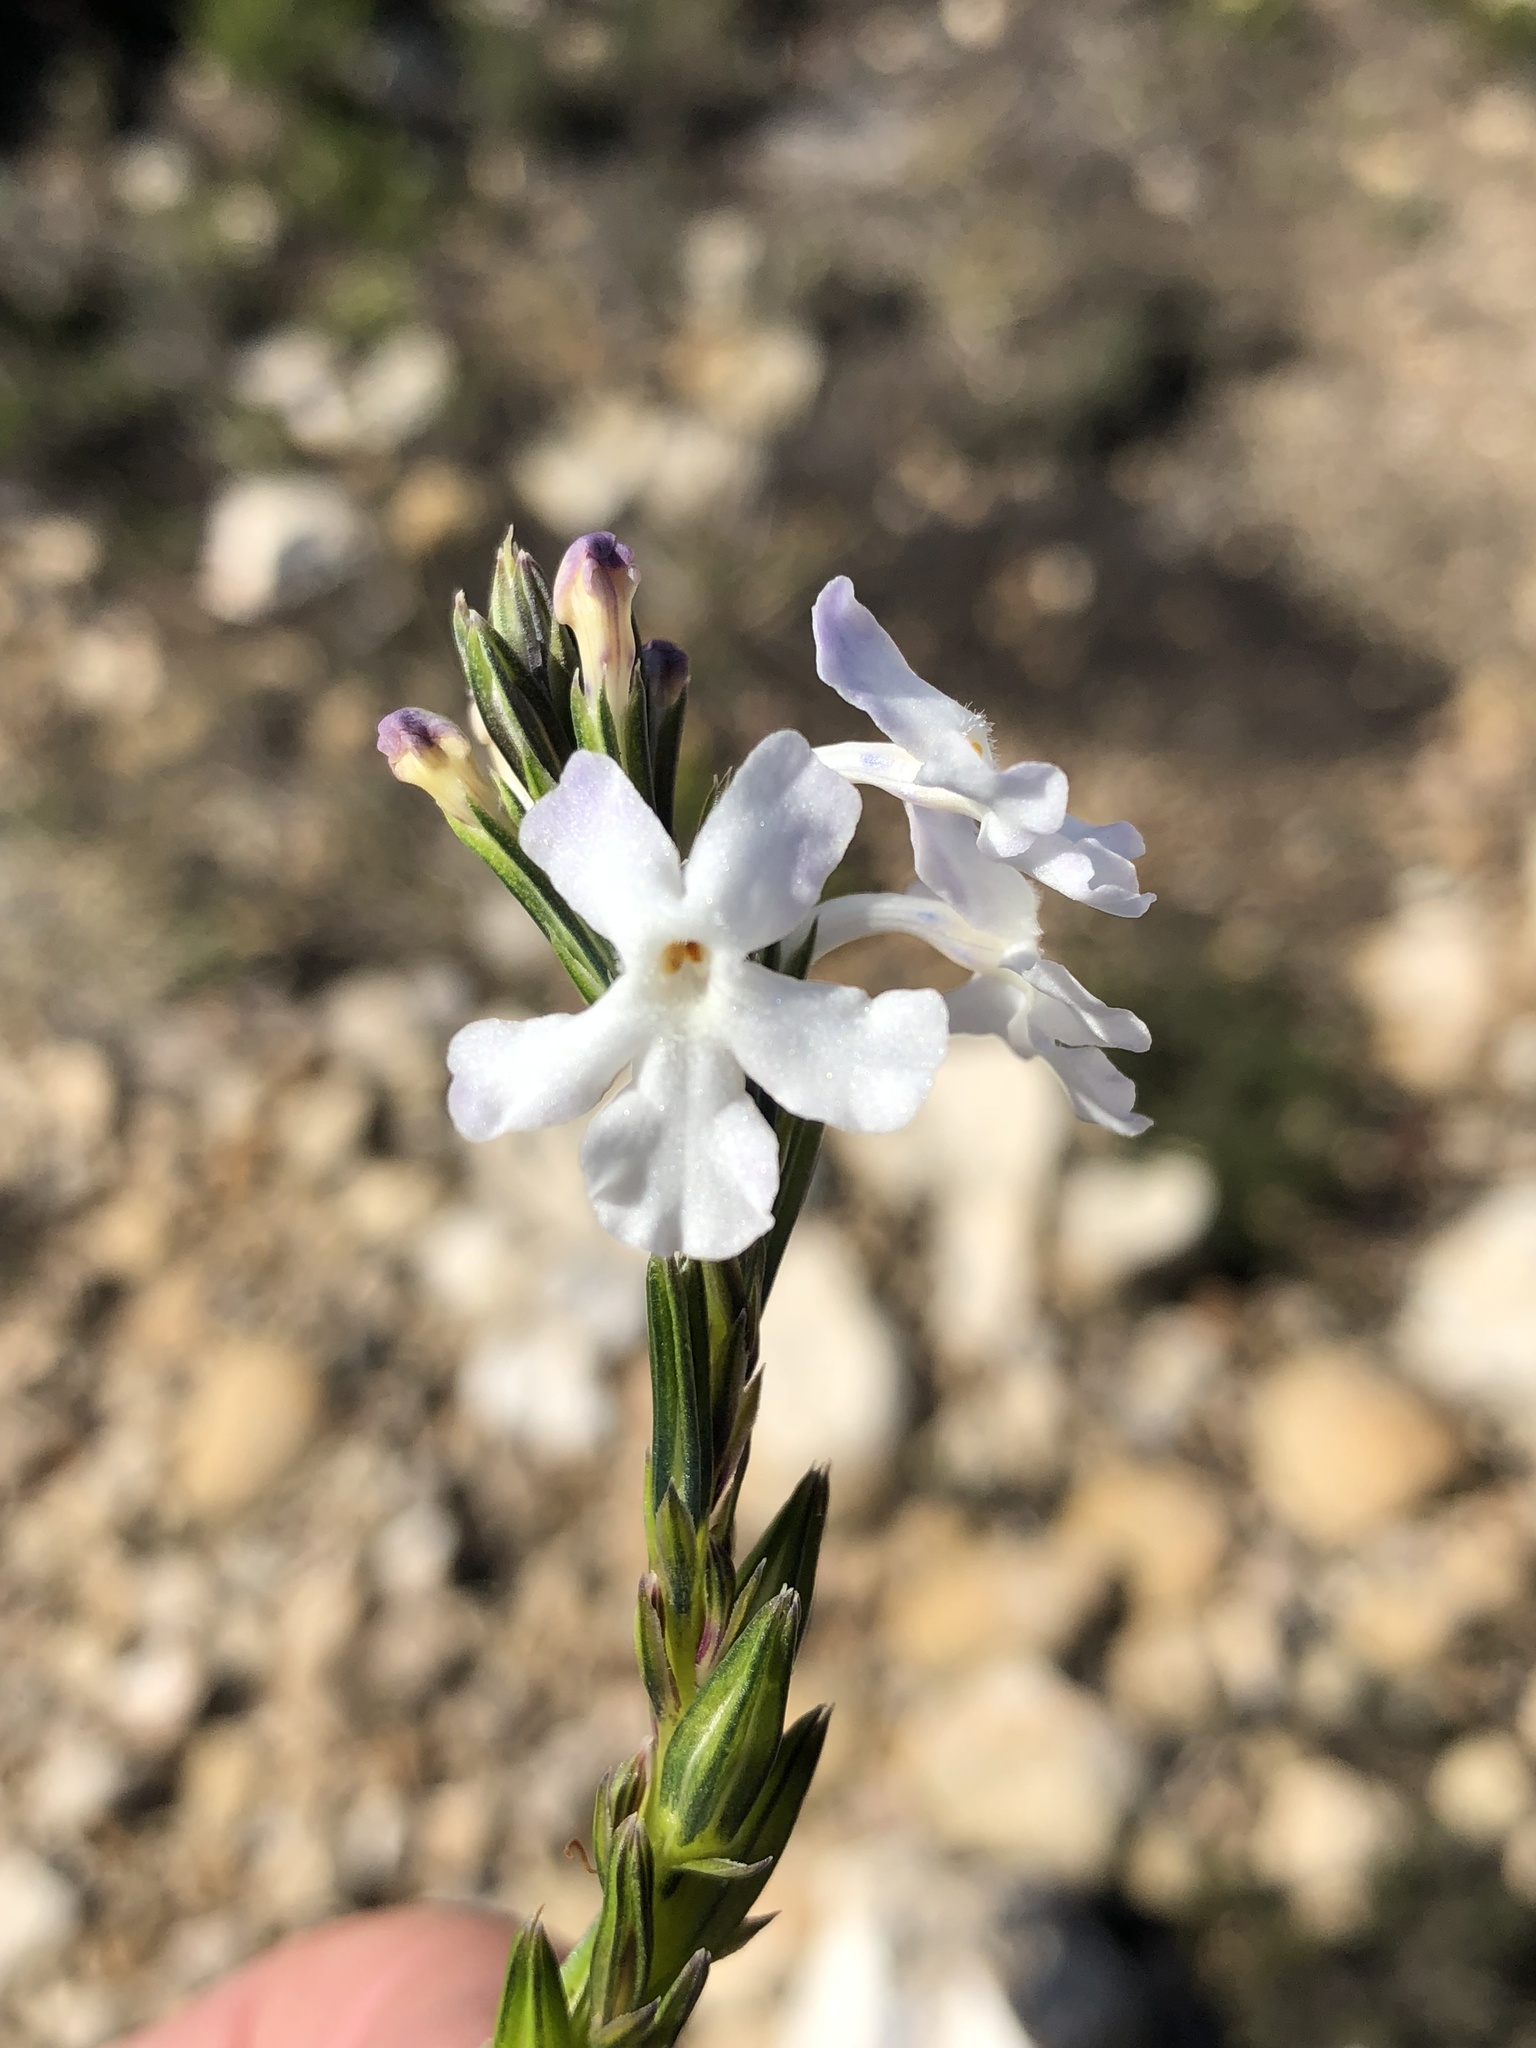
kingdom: Plantae
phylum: Tracheophyta
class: Magnoliopsida
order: Lamiales
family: Verbenaceae
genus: Chascanum
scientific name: Chascanum cernuum
